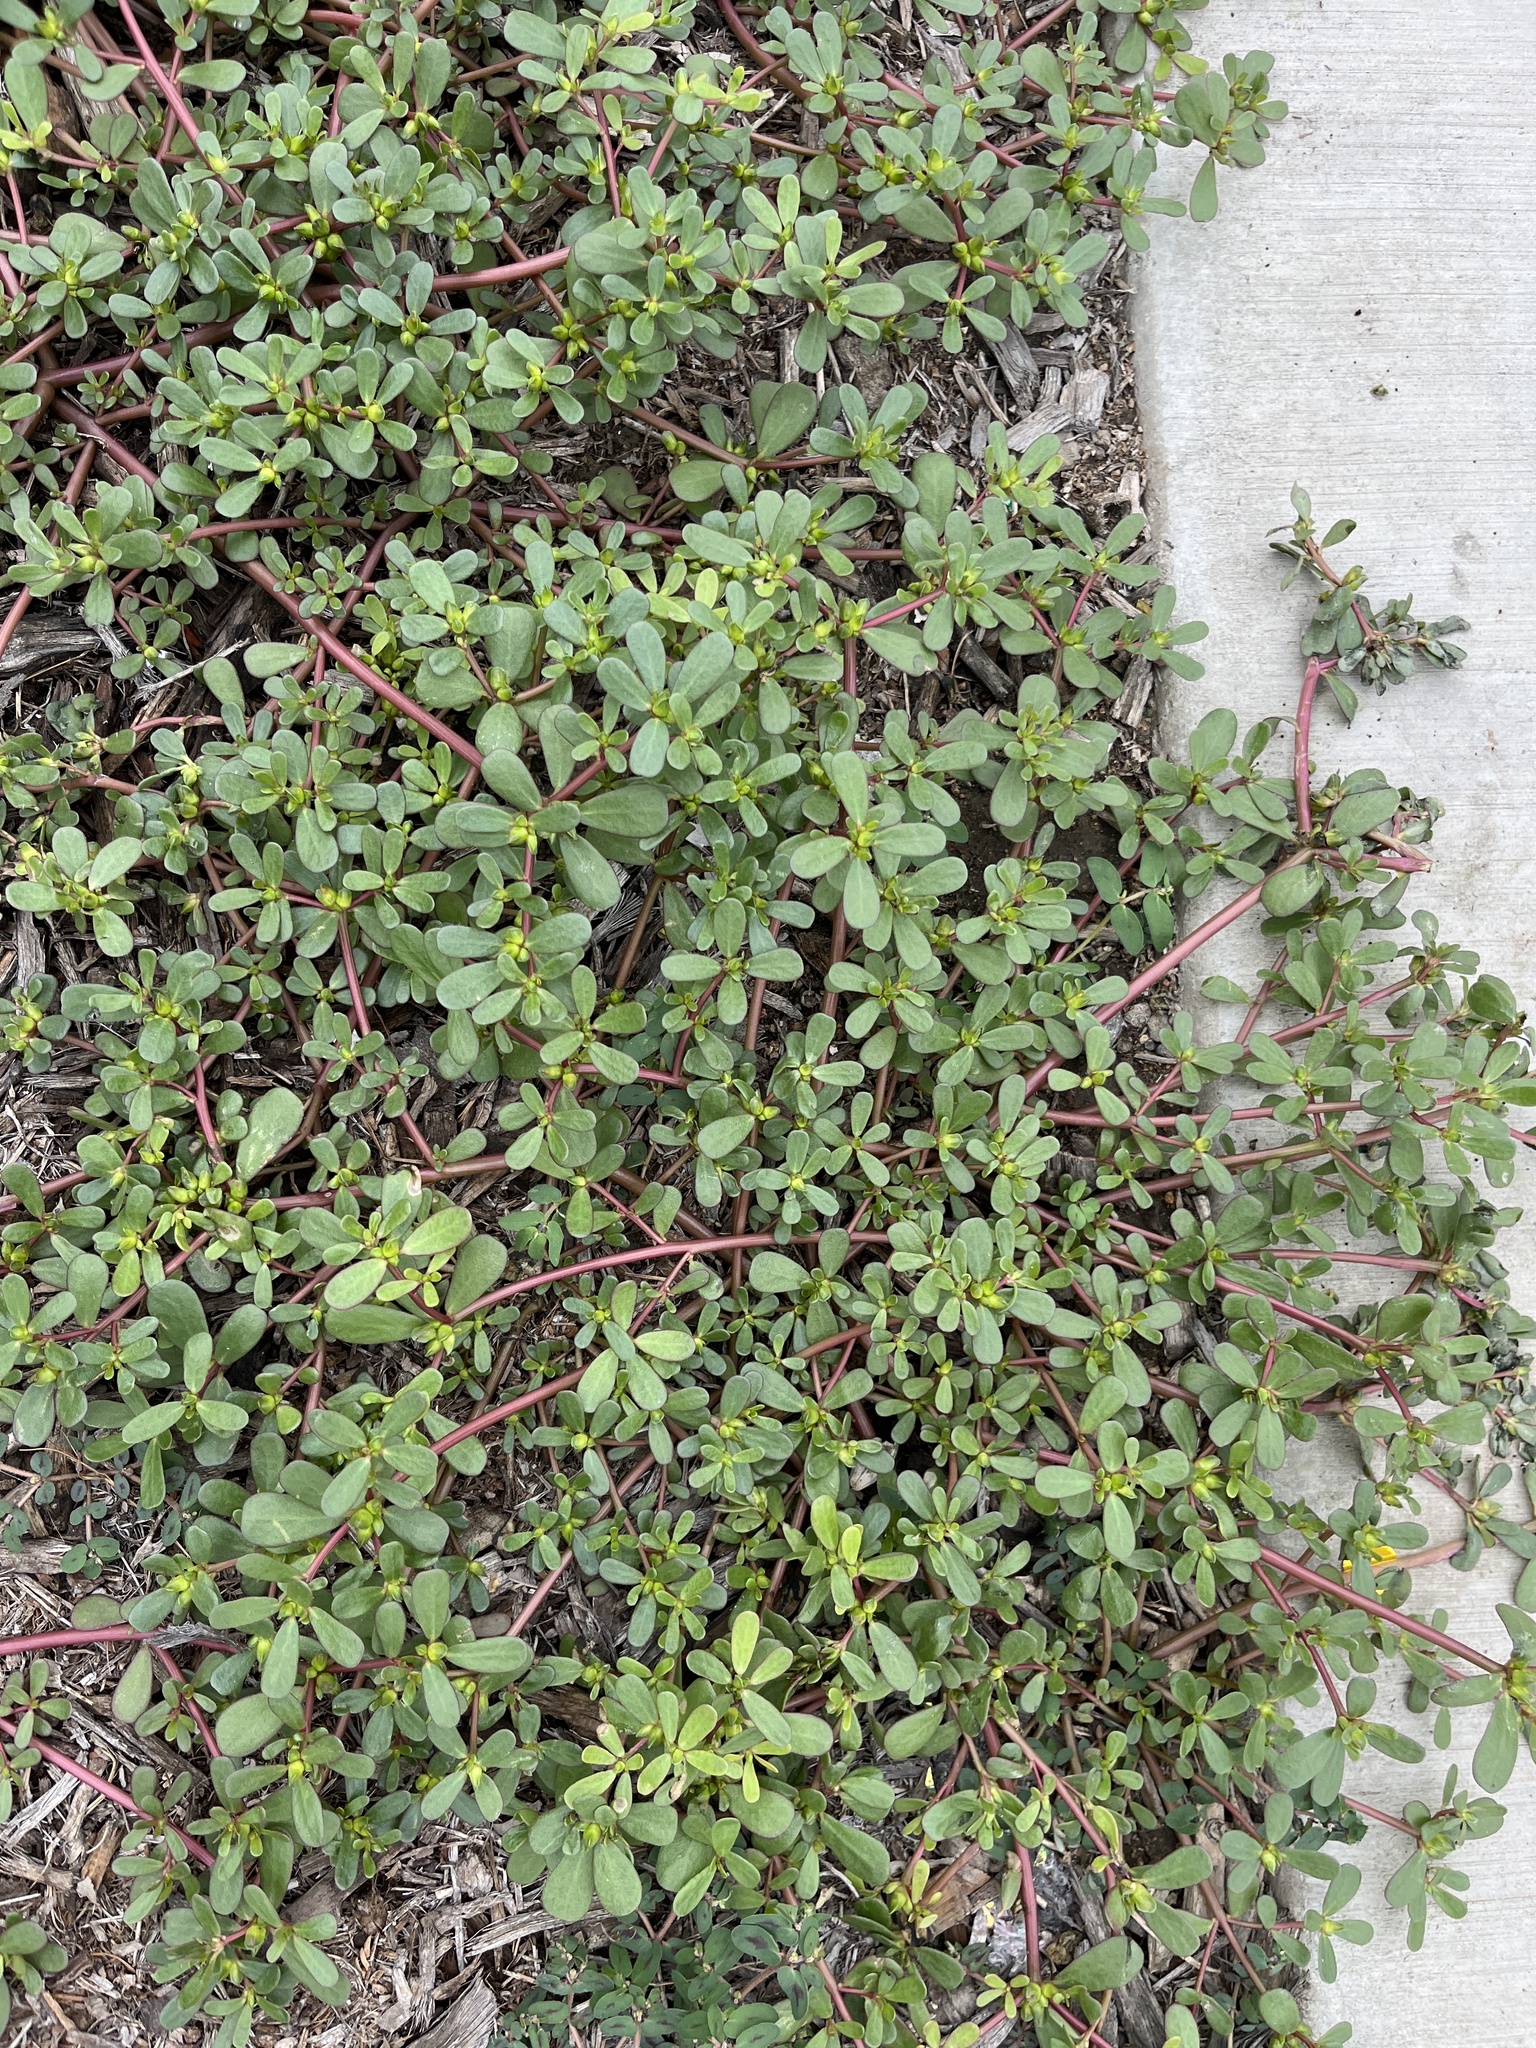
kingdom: Plantae
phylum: Tracheophyta
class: Magnoliopsida
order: Caryophyllales
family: Portulacaceae
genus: Portulaca
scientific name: Portulaca oleracea
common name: Common purslane
